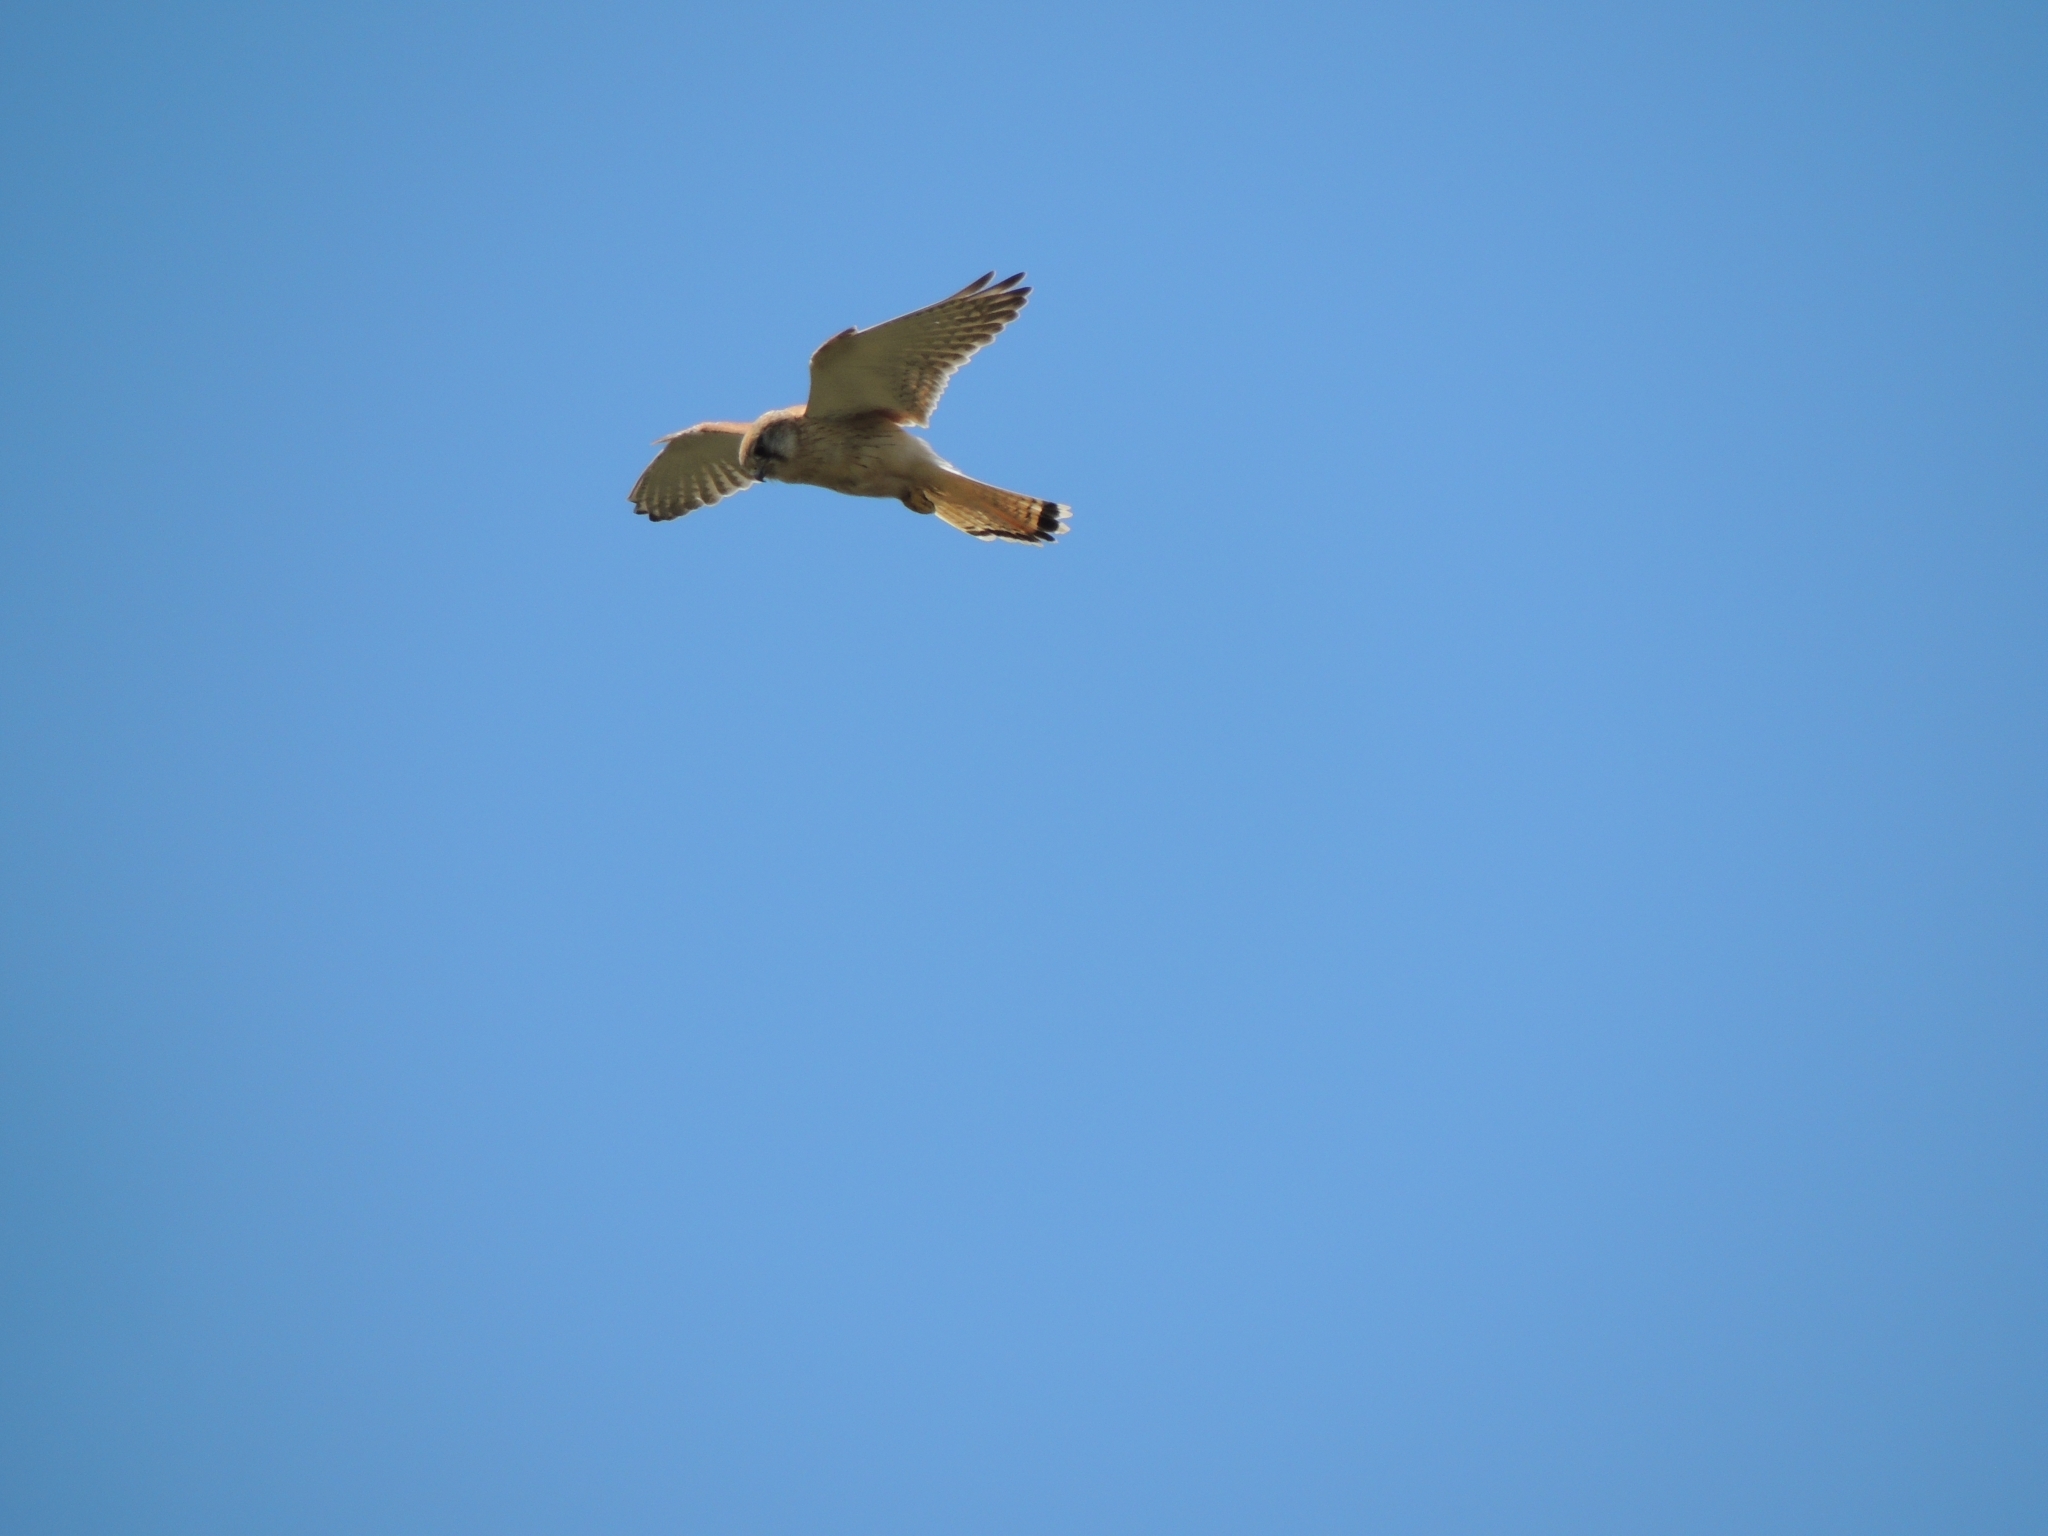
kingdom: Animalia
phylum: Chordata
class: Aves
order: Falconiformes
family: Falconidae
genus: Falco
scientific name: Falco cenchroides
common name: Nankeen kestrel
